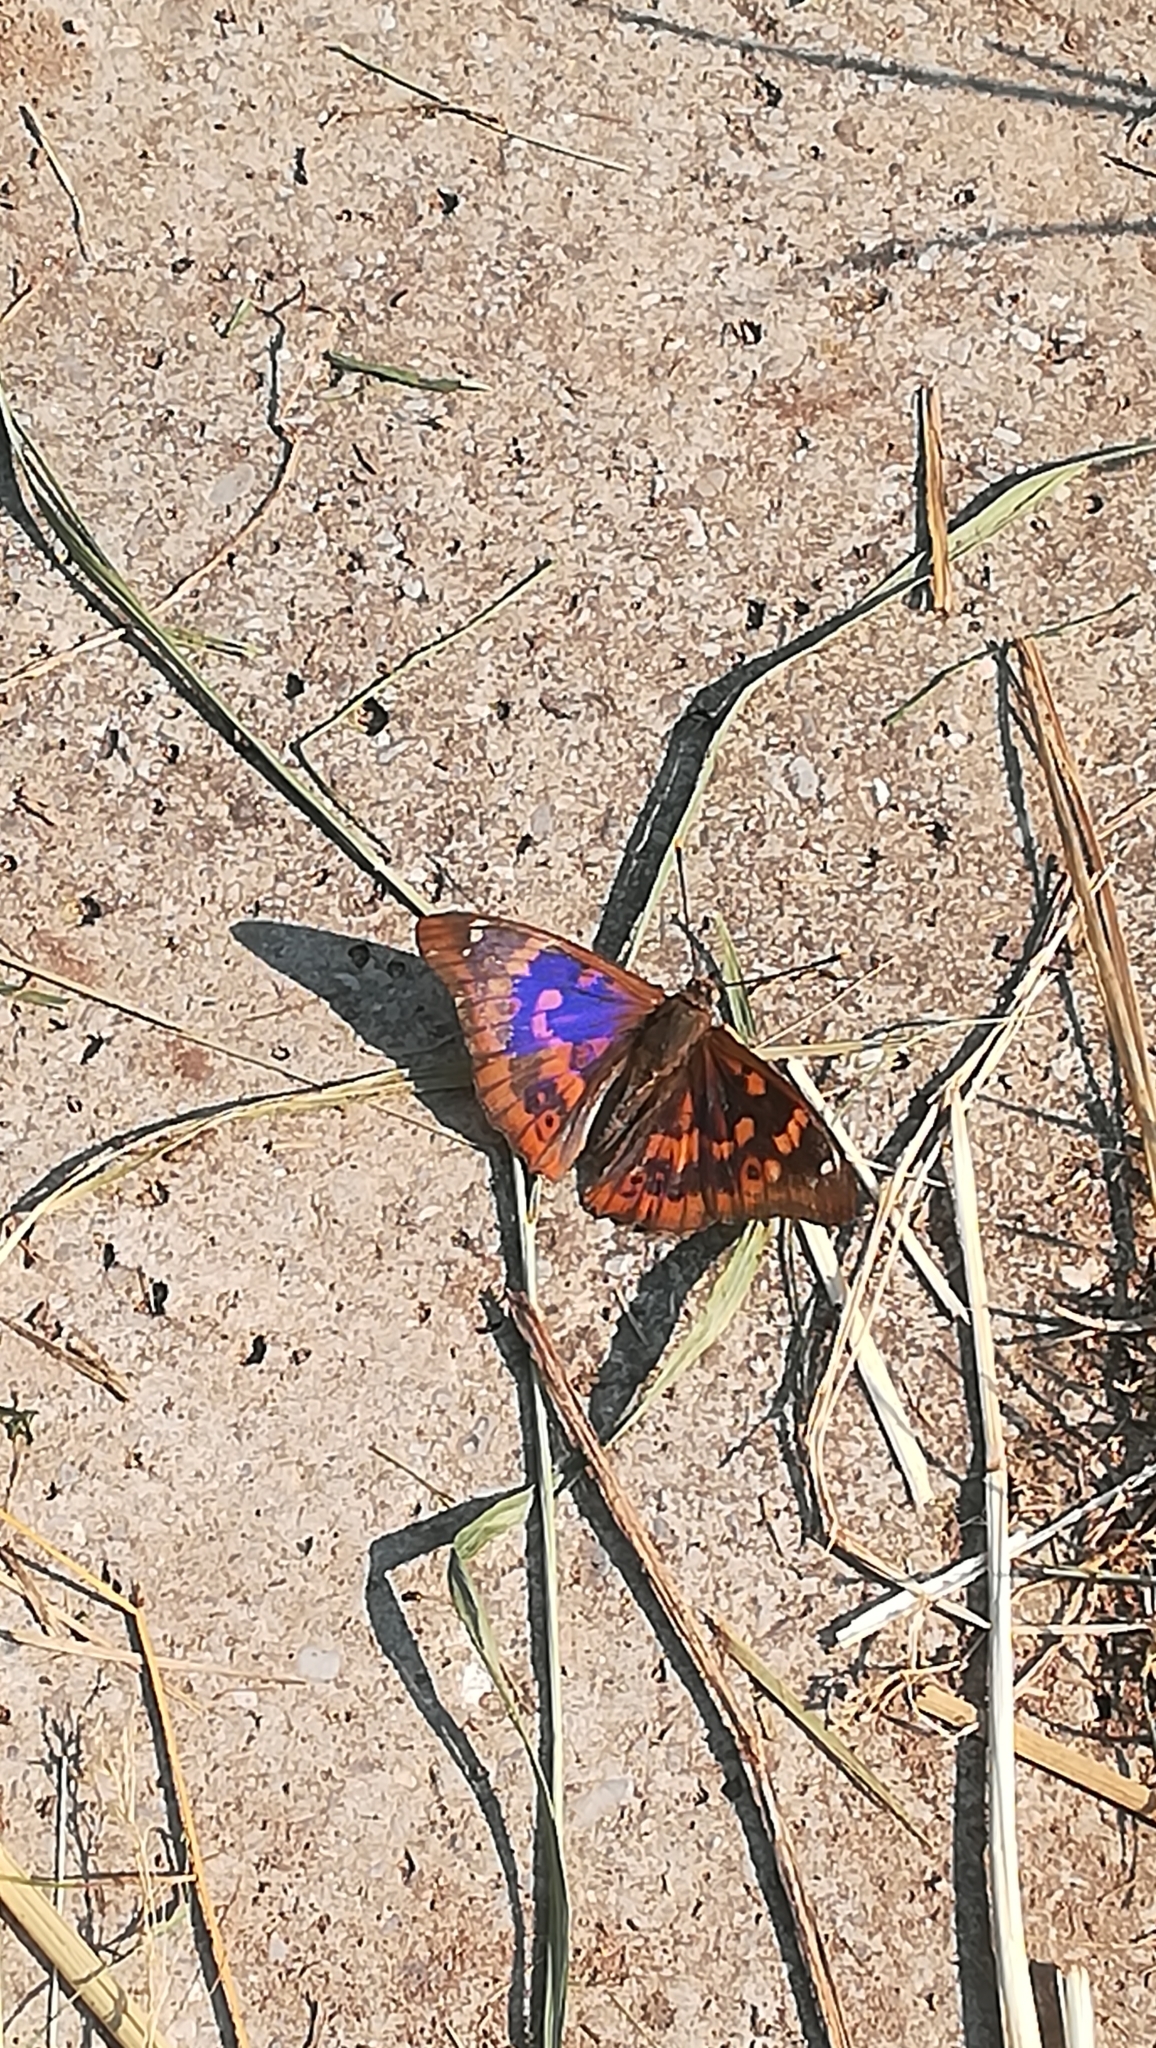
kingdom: Animalia
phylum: Arthropoda
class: Insecta
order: Lepidoptera
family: Nymphalidae
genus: Apatura
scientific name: Apatura ilia
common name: Lesser purple emperor
